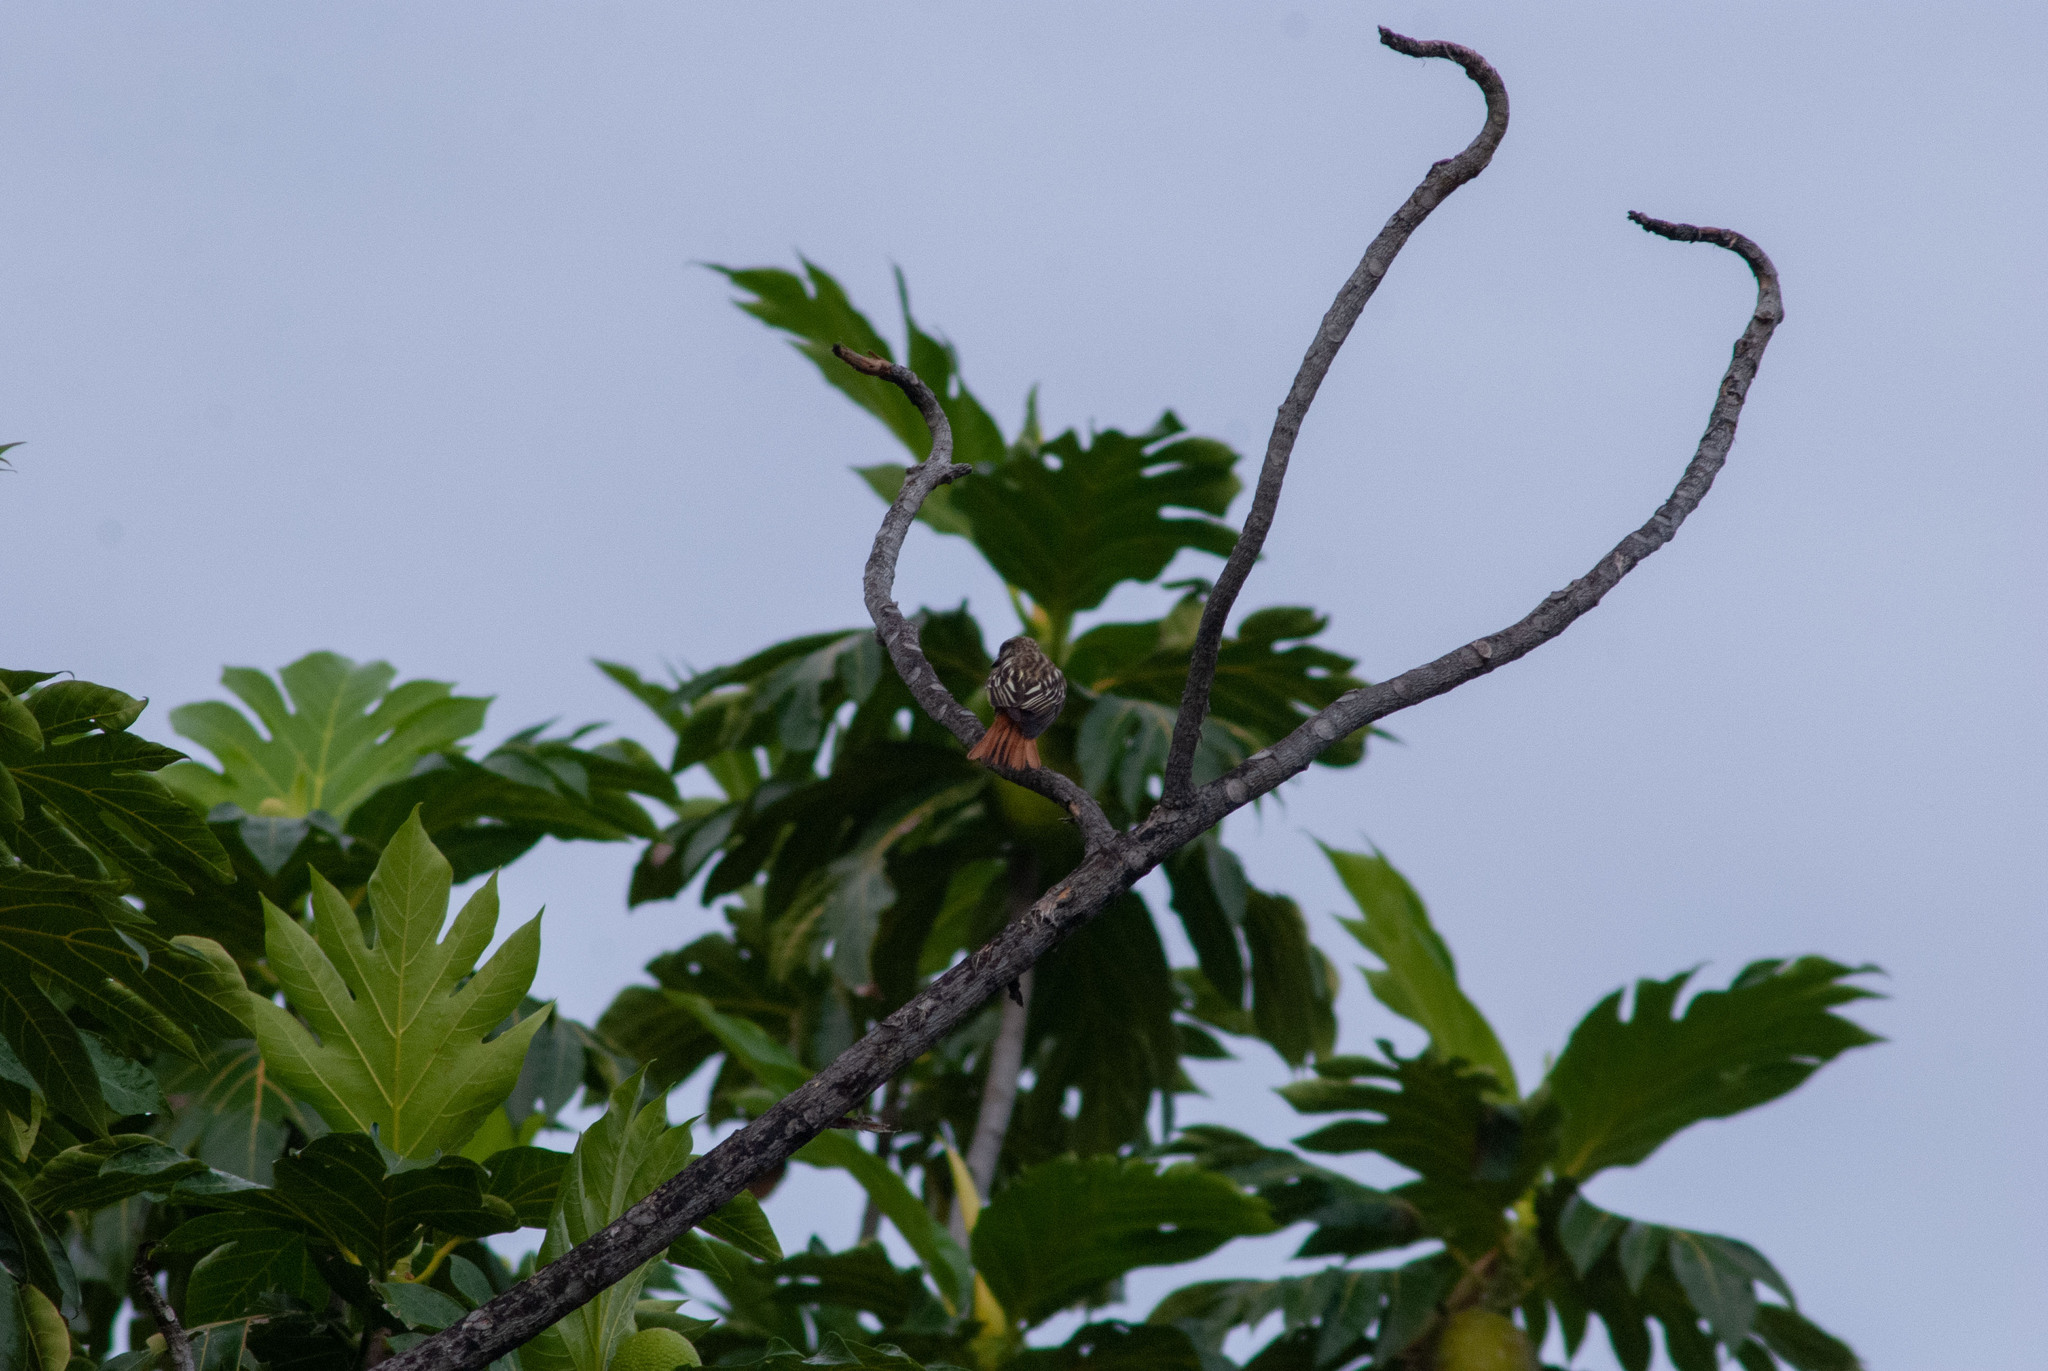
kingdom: Animalia
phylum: Chordata
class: Aves
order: Passeriformes
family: Tyrannidae
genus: Myiodynastes
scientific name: Myiodynastes luteiventris
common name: Sulphur-bellied flycatcher
